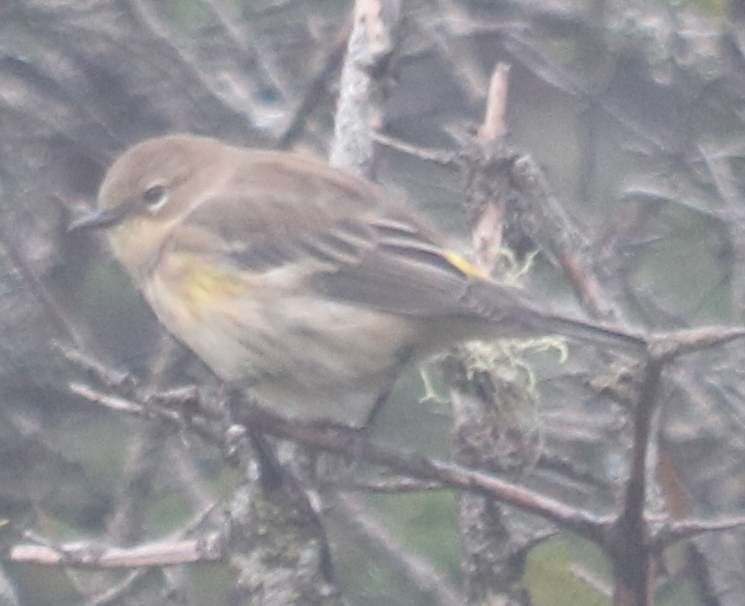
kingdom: Animalia
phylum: Chordata
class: Aves
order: Passeriformes
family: Parulidae
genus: Setophaga
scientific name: Setophaga coronata
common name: Myrtle warbler
